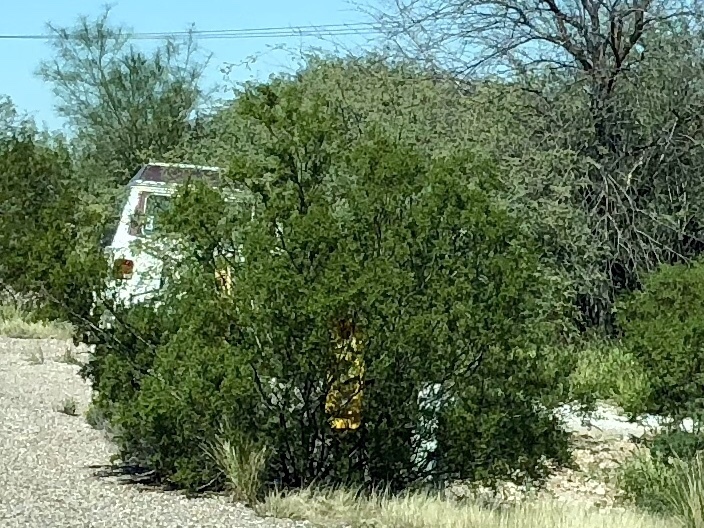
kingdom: Plantae
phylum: Tracheophyta
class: Magnoliopsida
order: Zygophyllales
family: Zygophyllaceae
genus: Larrea
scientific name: Larrea tridentata
